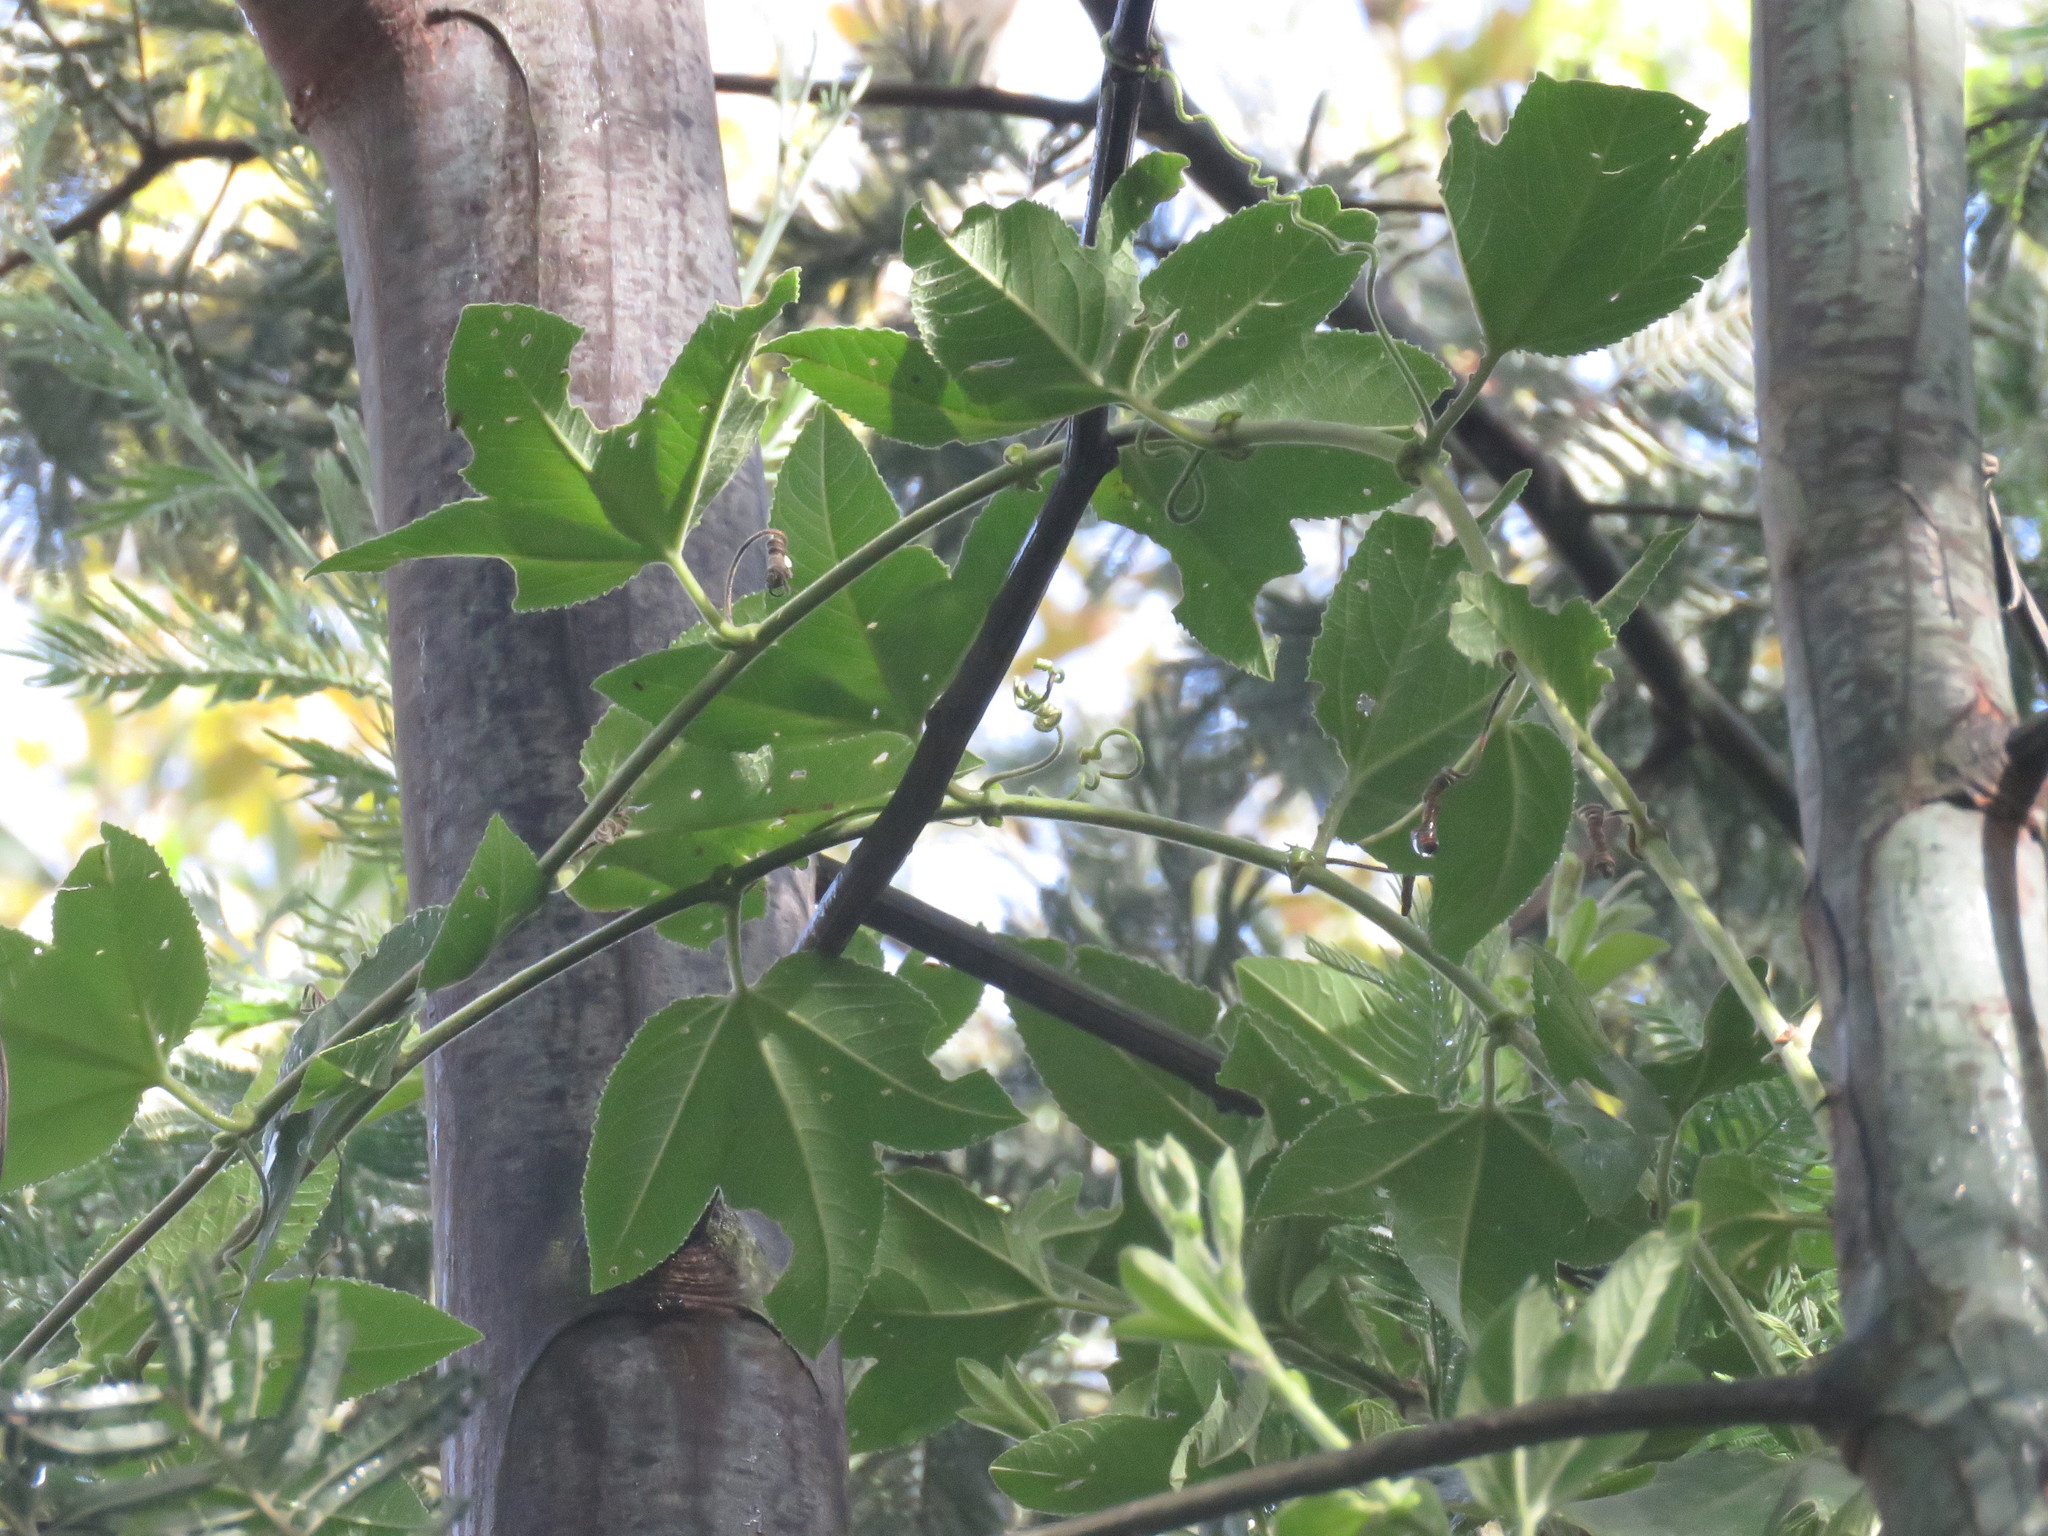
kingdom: Plantae
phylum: Tracheophyta
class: Magnoliopsida
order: Malpighiales
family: Passifloraceae
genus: Passiflora
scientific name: Passiflora tripartita
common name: Banana poka
